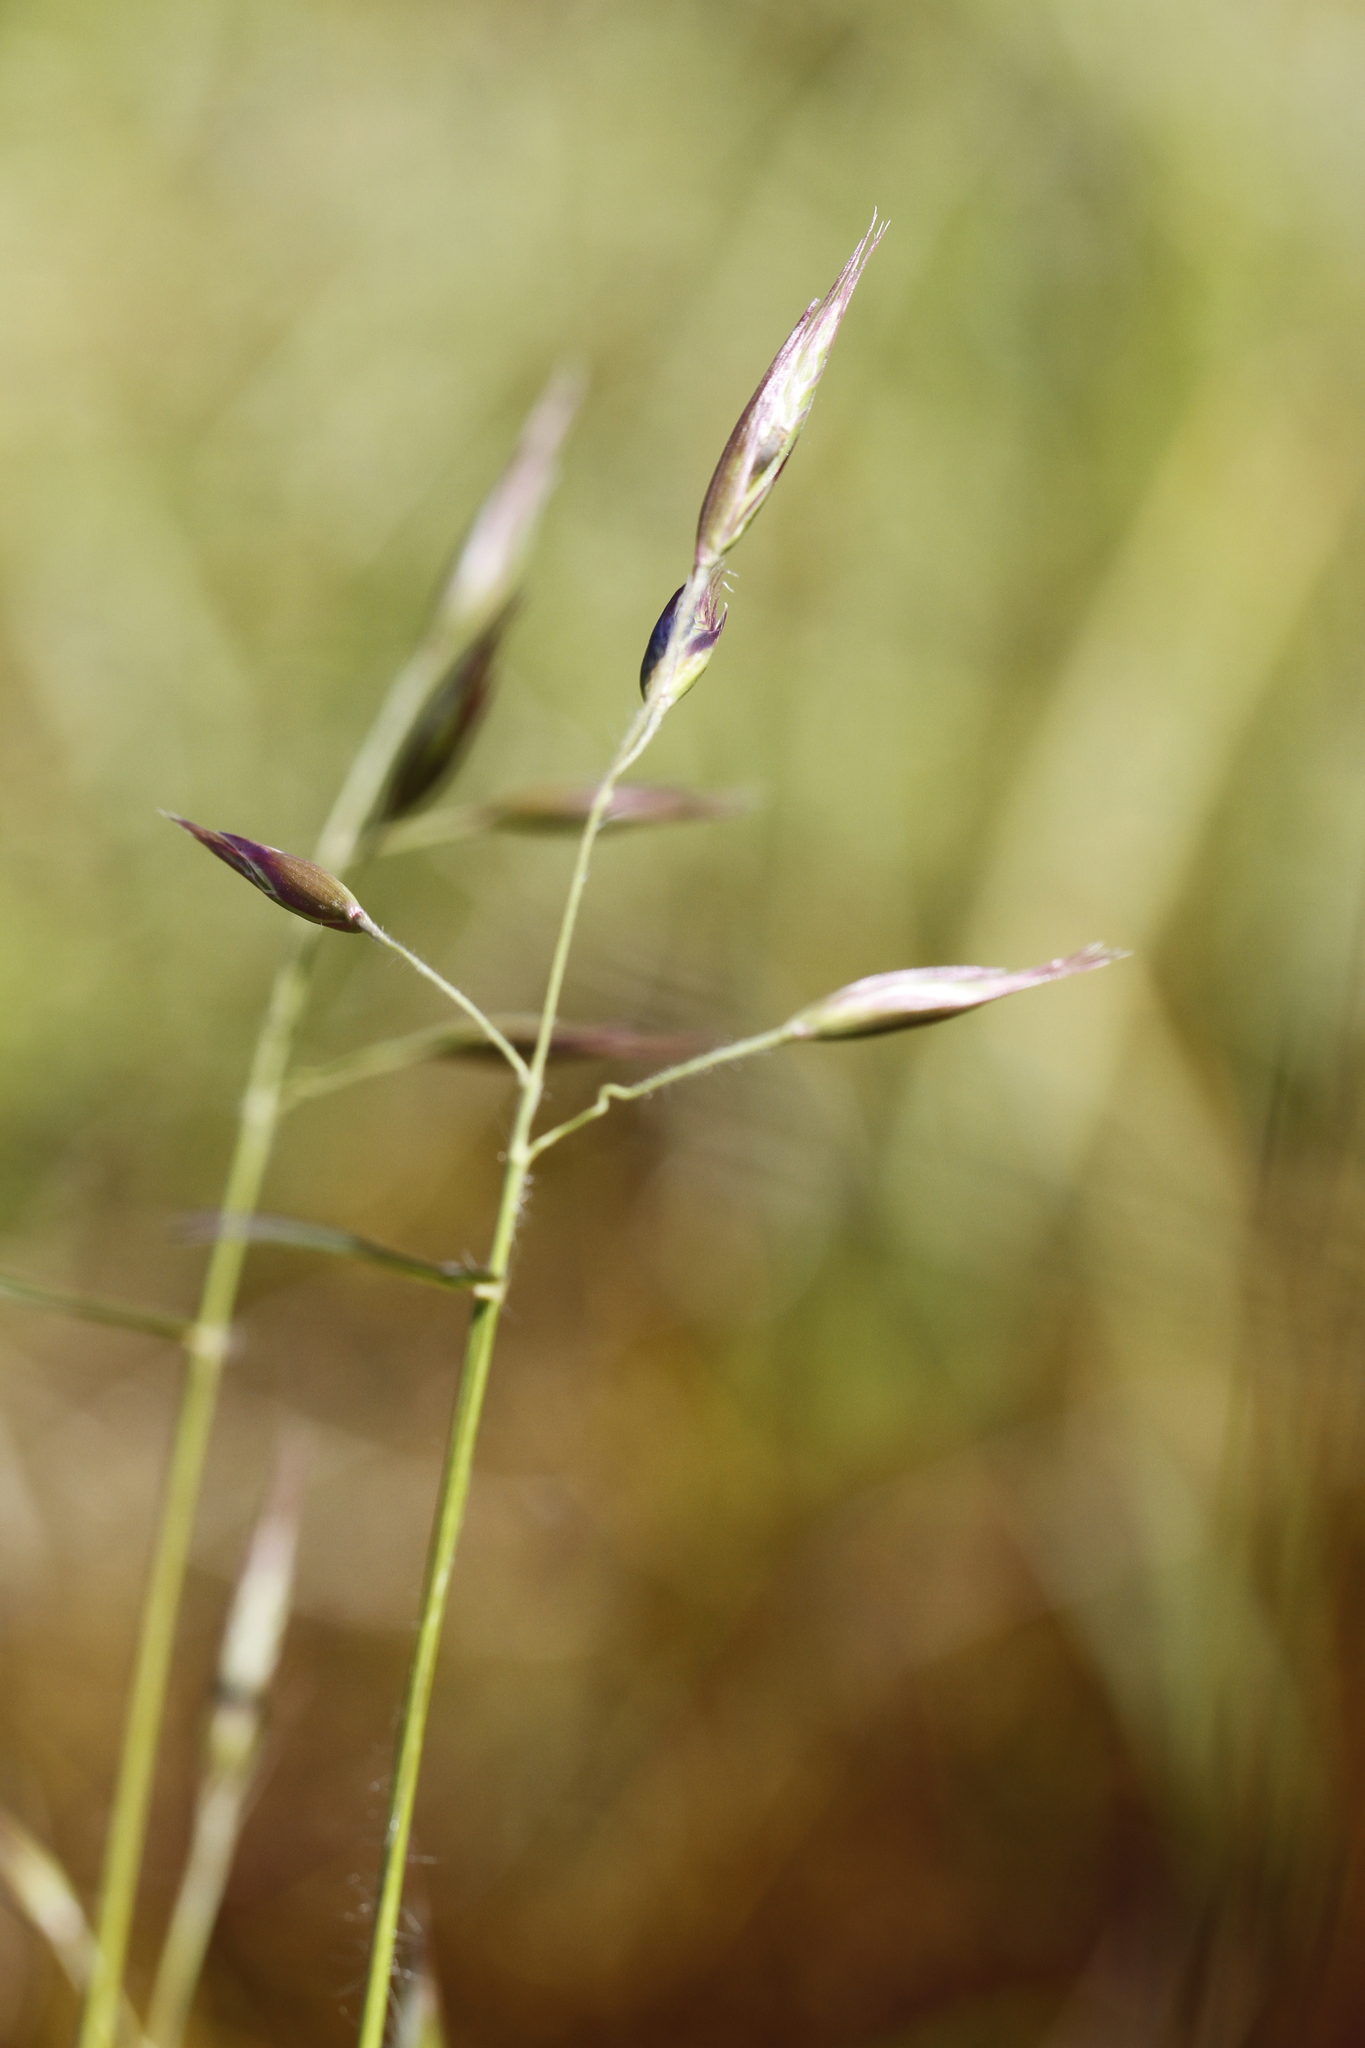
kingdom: Plantae
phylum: Tracheophyta
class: Liliopsida
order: Poales
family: Poaceae
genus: Danthonia
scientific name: Danthonia californica
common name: California oat grass
